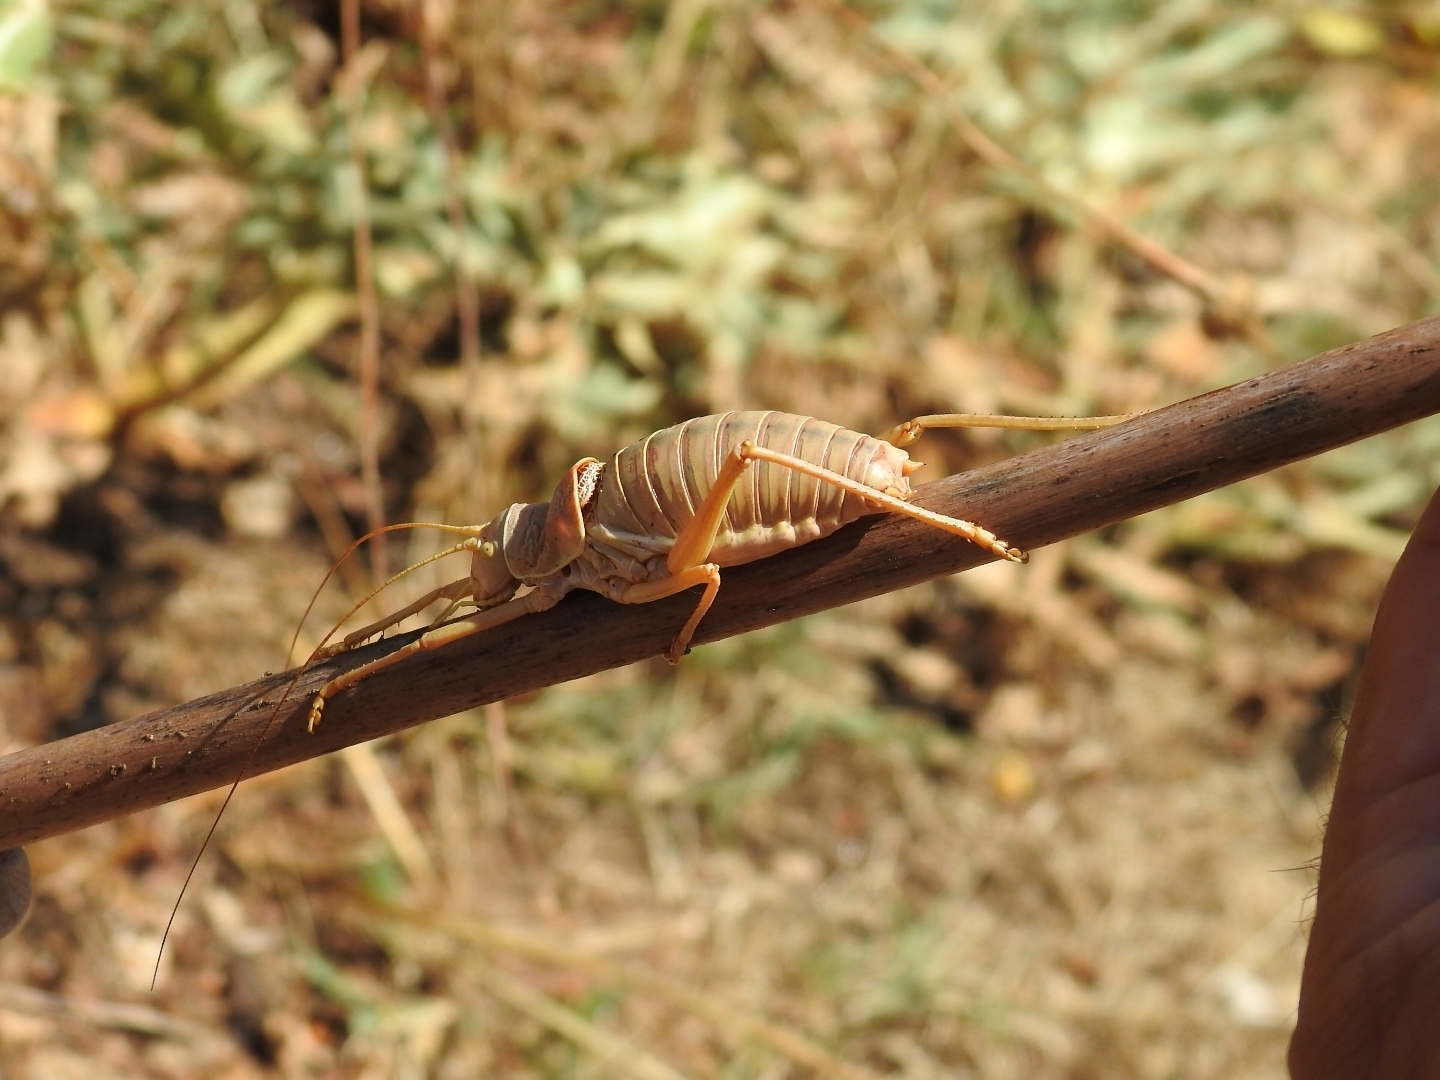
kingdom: Animalia
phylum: Arthropoda
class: Insecta
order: Orthoptera
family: Tettigoniidae
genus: Ephippiger
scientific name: Ephippiger apulus
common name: Apulian saddle bush-cricket
